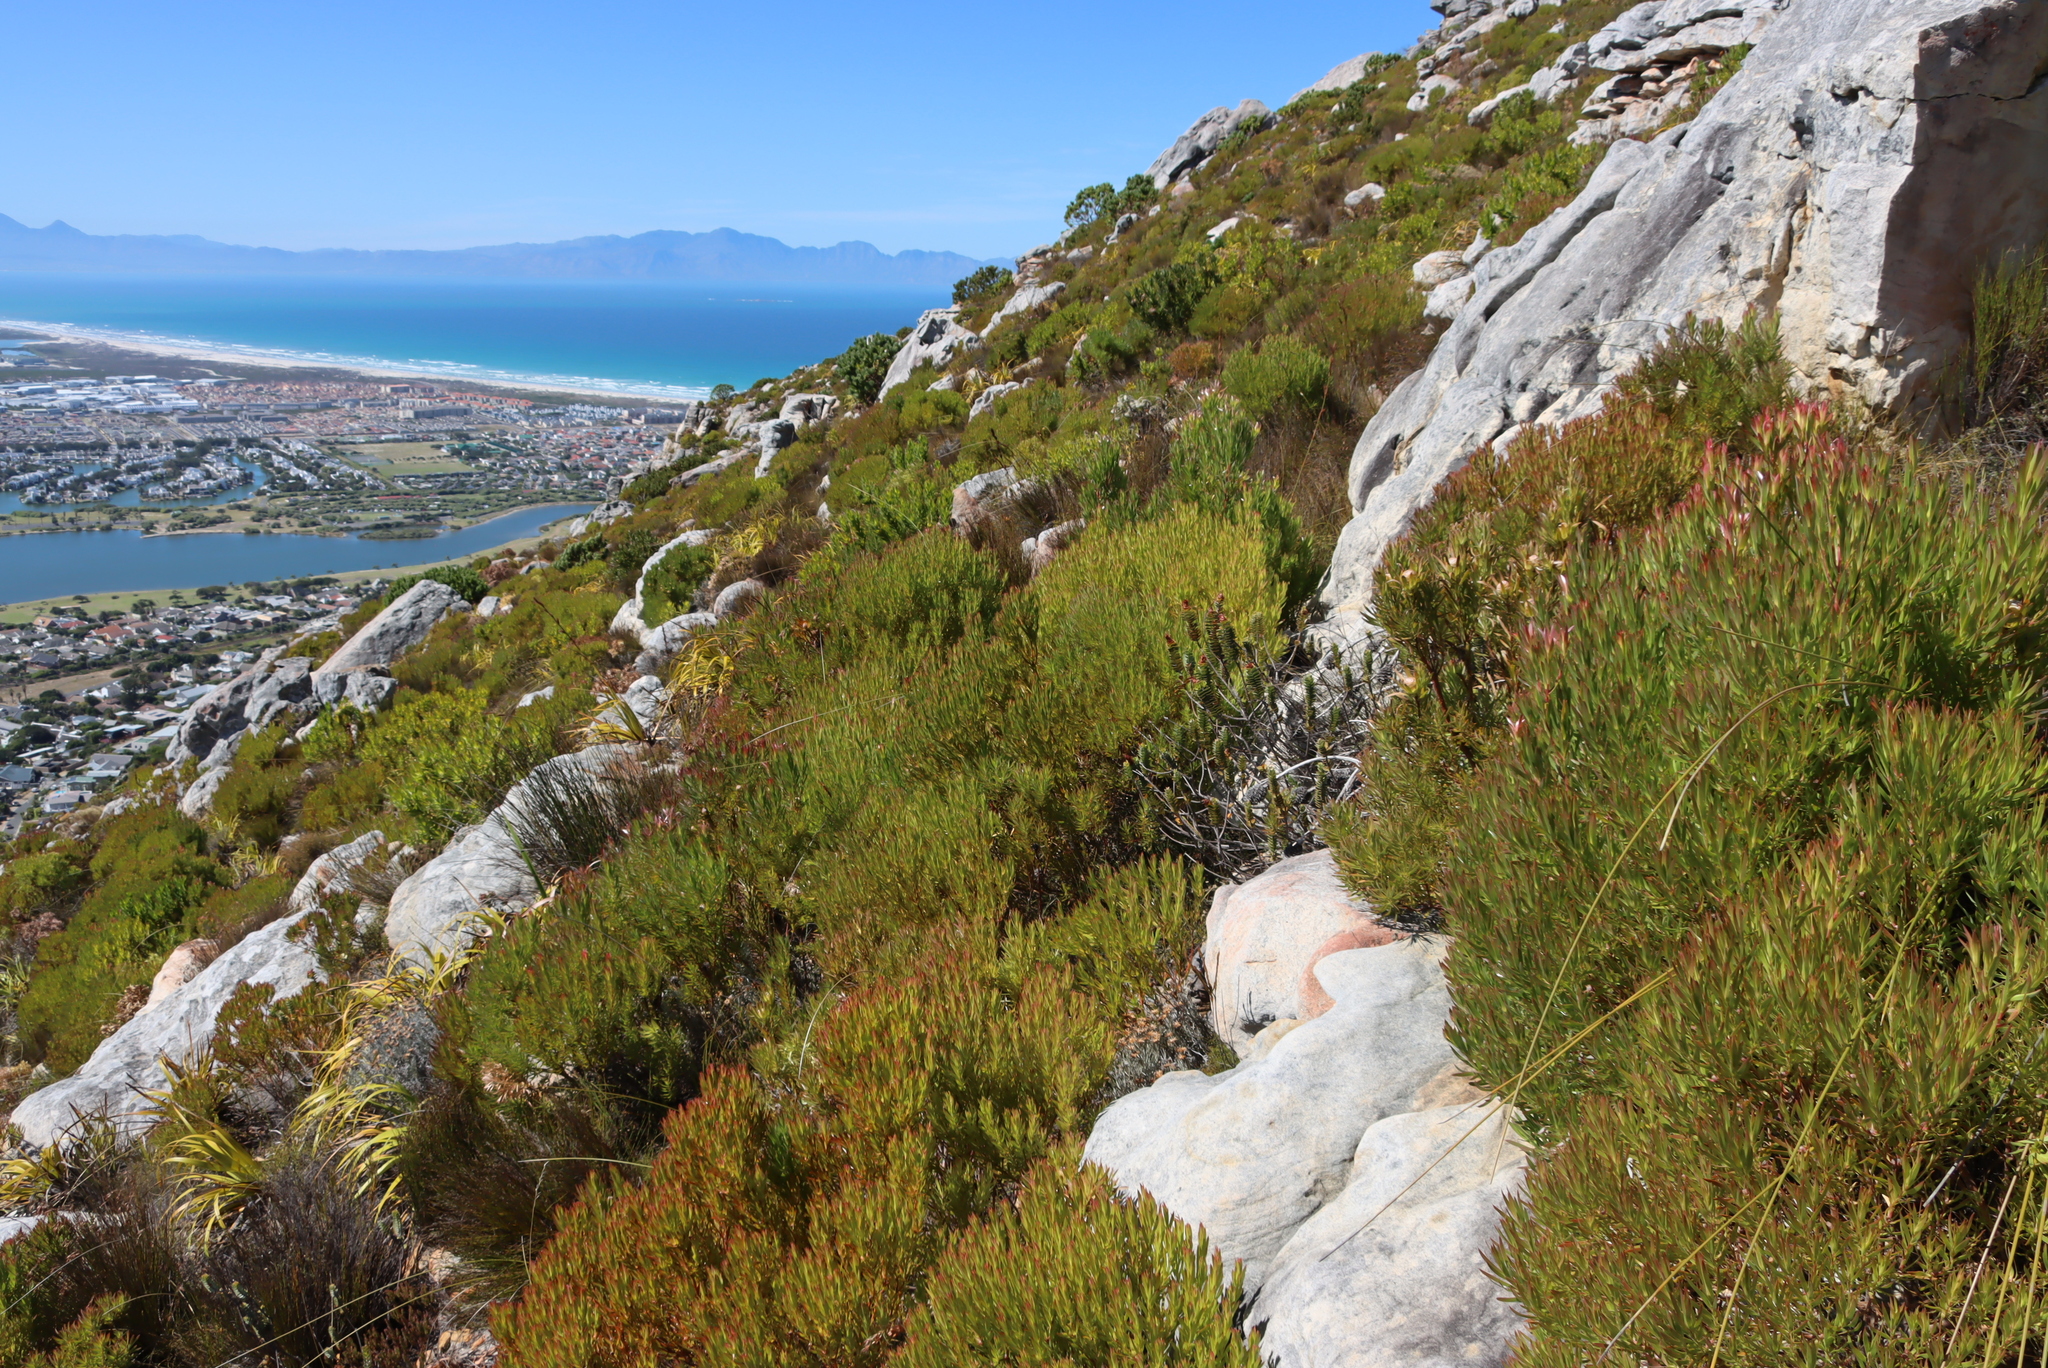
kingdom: Plantae
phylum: Tracheophyta
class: Magnoliopsida
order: Proteales
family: Proteaceae
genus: Leucadendron
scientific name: Leucadendron xanthoconus
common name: Sickle-leaf conebush
